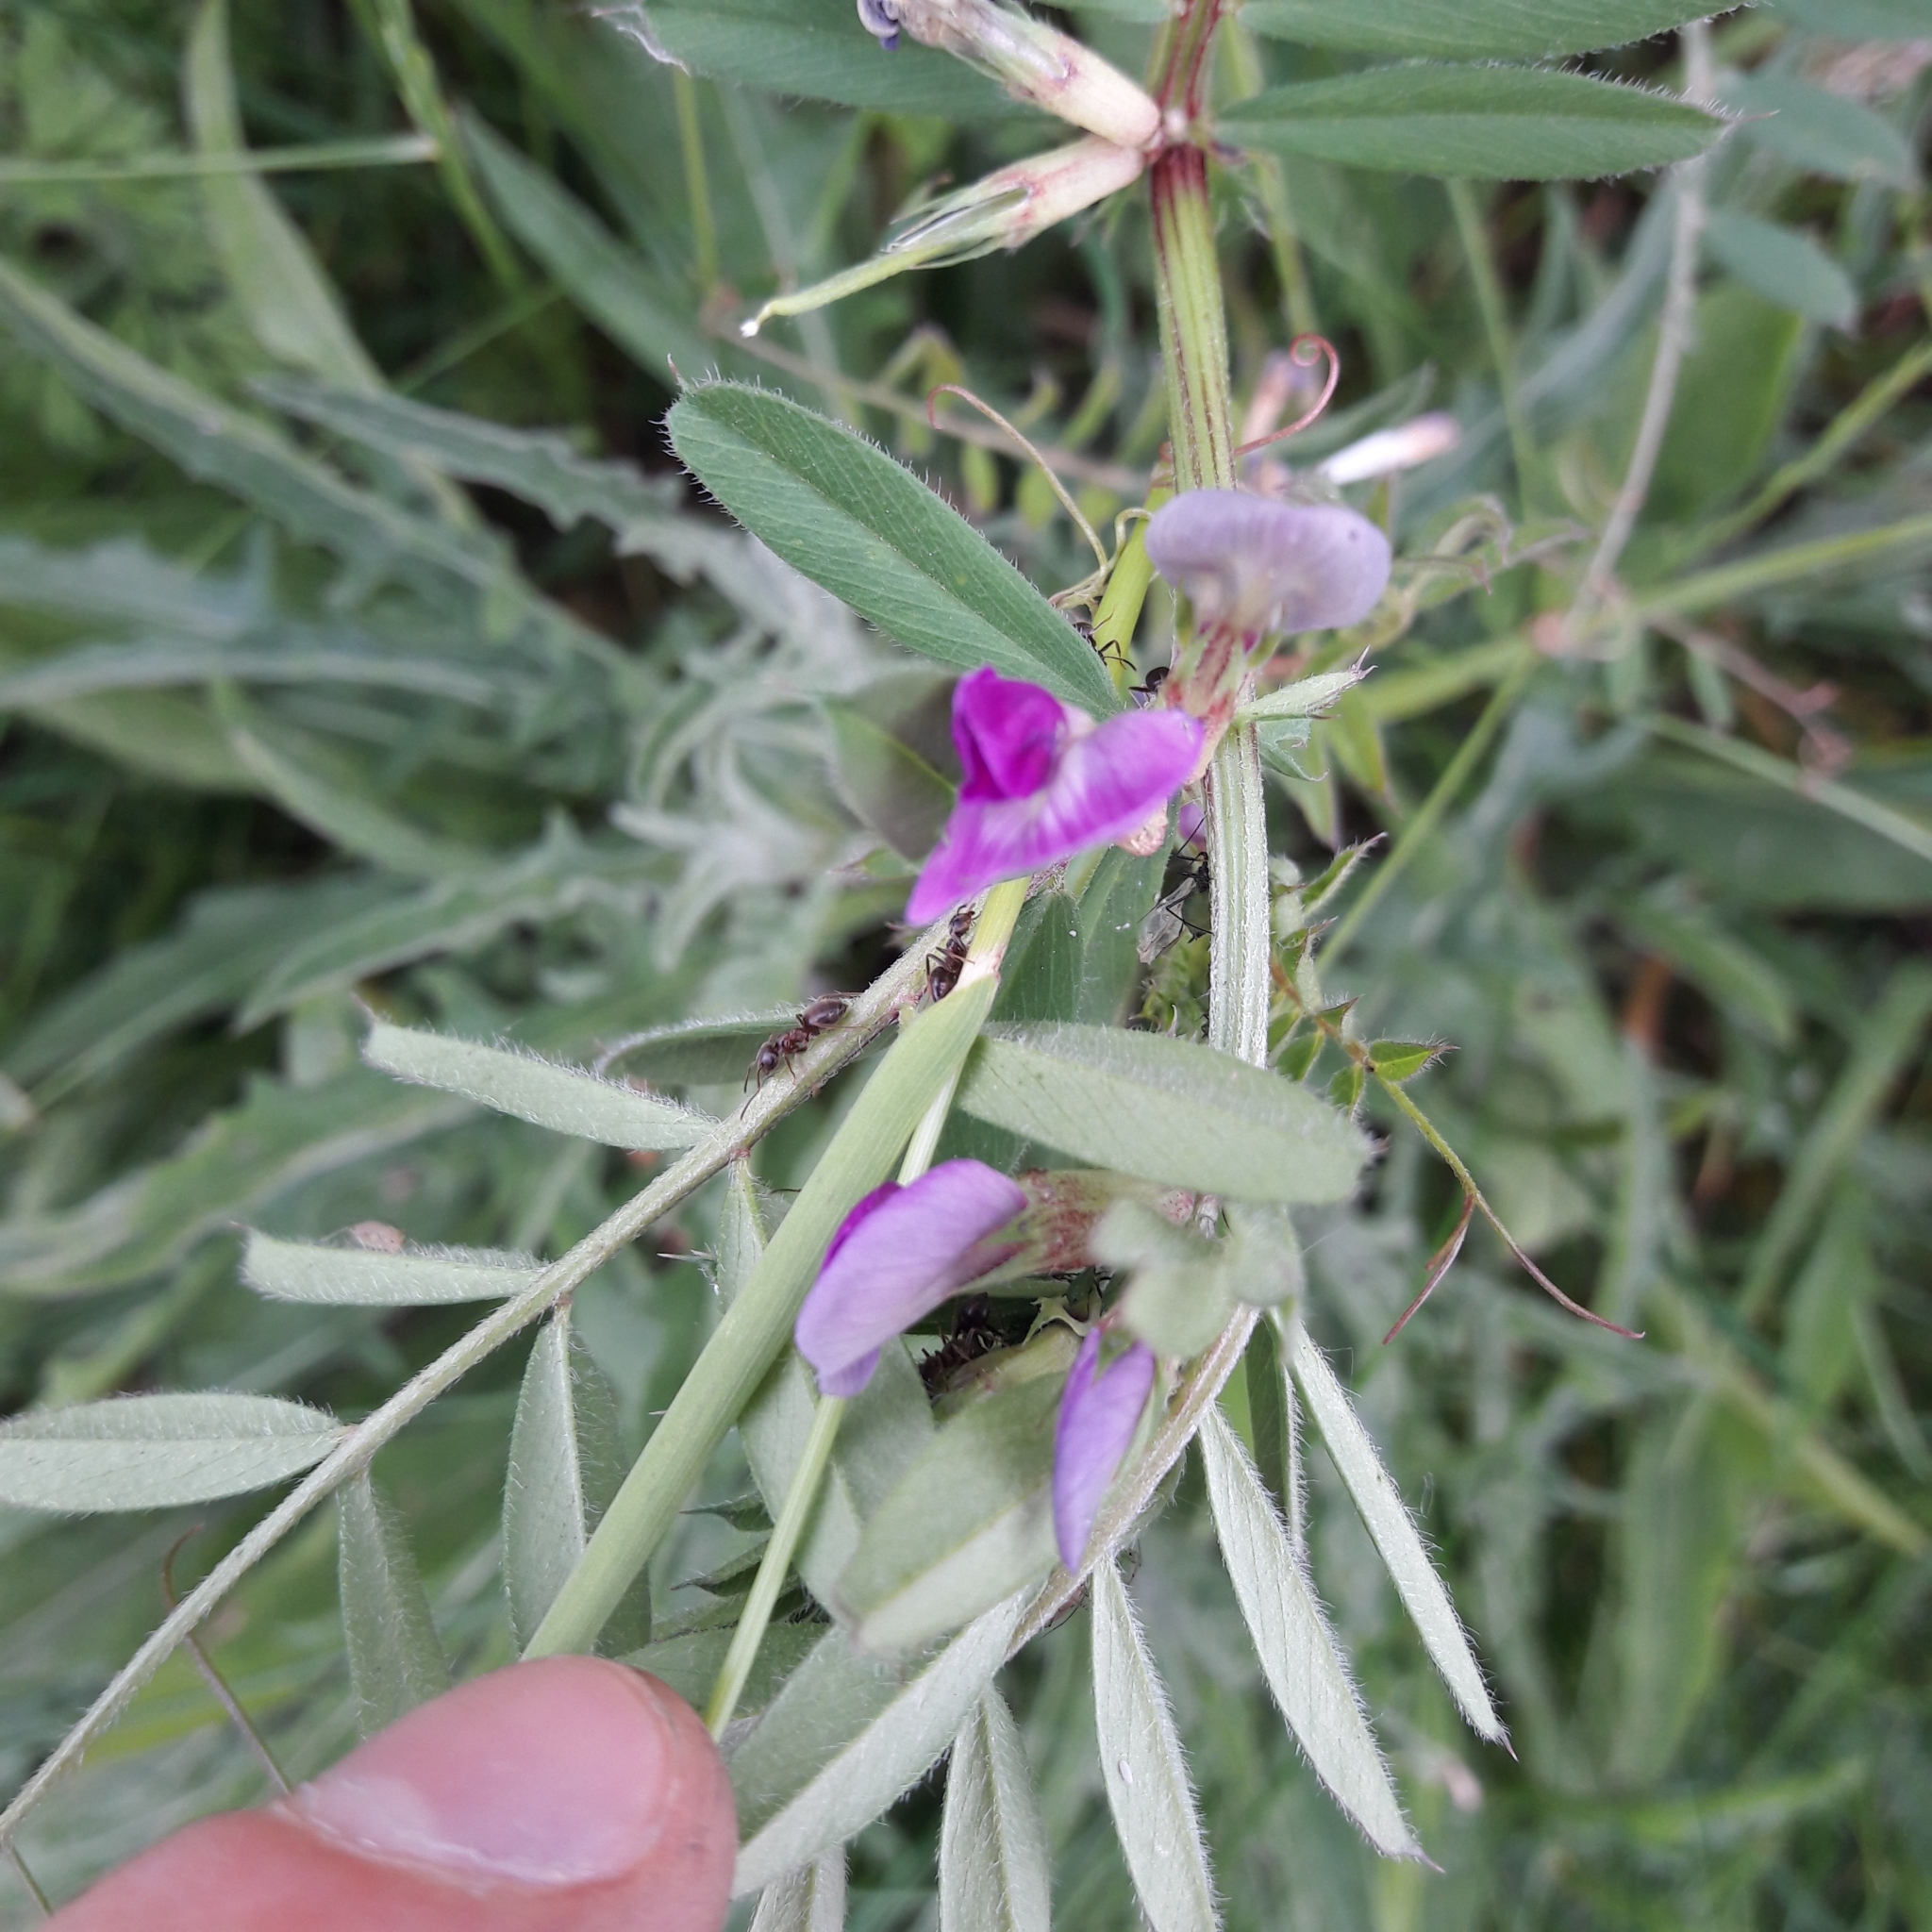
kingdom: Plantae
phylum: Tracheophyta
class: Magnoliopsida
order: Fabales
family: Fabaceae
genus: Vicia
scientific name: Vicia sativa
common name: Garden vetch
